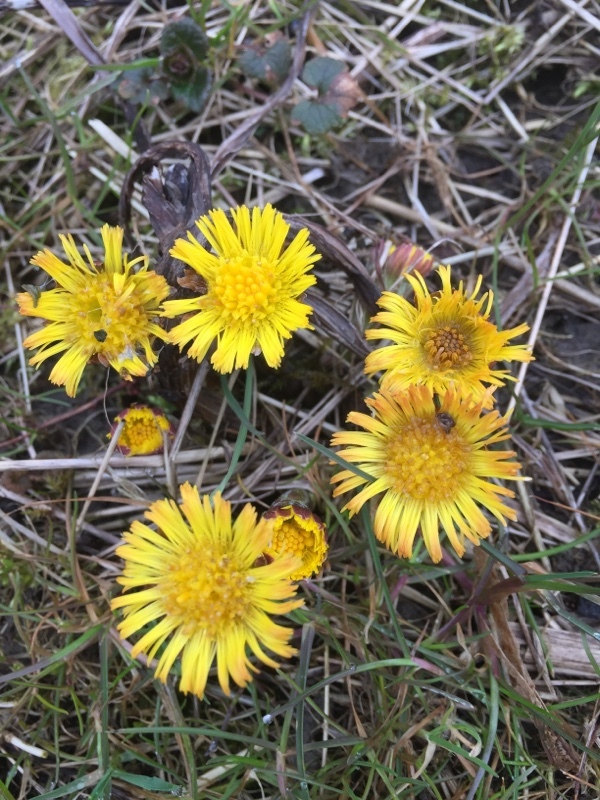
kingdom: Plantae
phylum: Tracheophyta
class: Magnoliopsida
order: Asterales
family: Asteraceae
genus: Tussilago
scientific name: Tussilago farfara
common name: Coltsfoot
